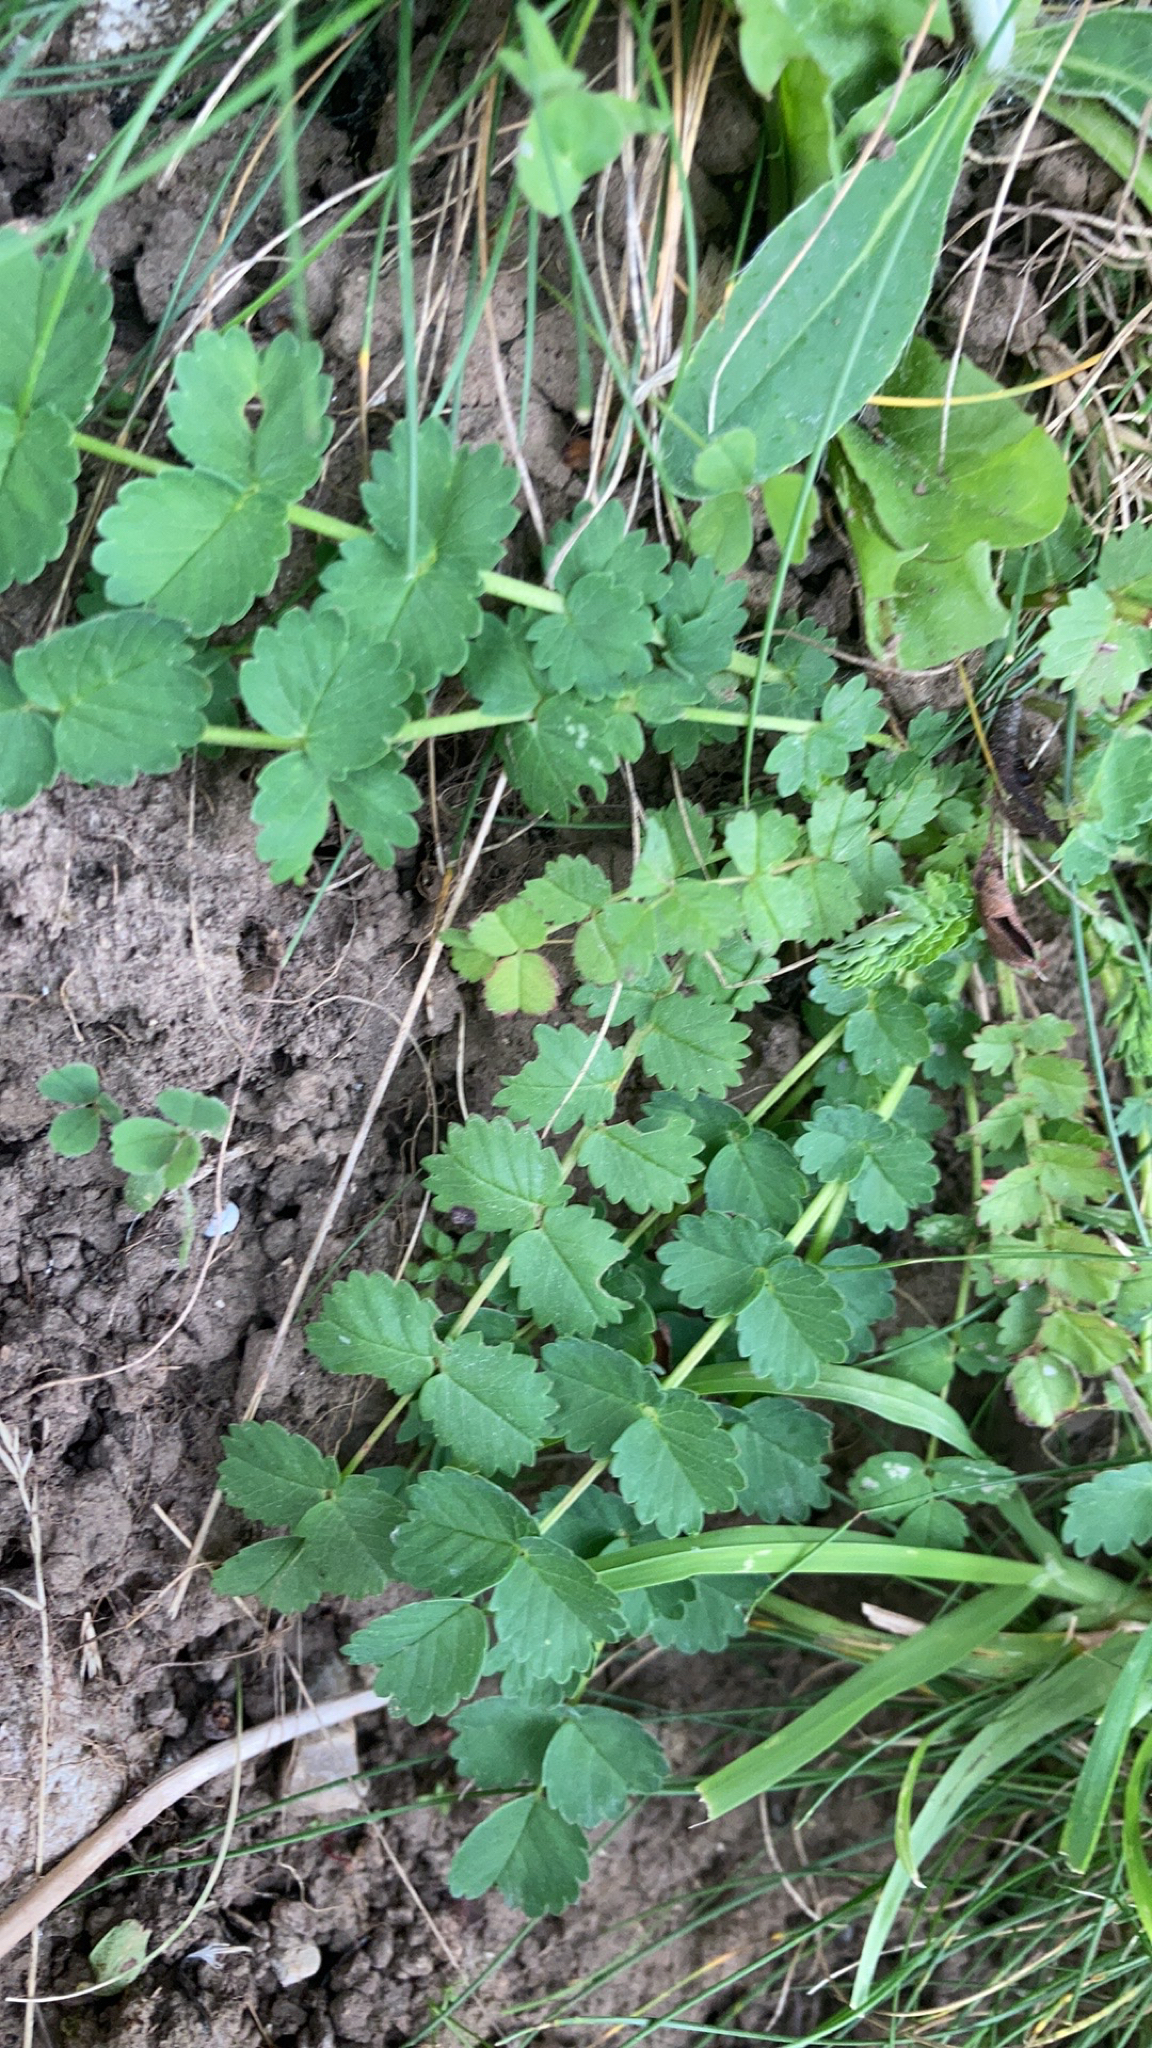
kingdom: Plantae
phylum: Tracheophyta
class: Magnoliopsida
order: Rosales
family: Rosaceae
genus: Poterium
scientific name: Poterium sanguisorba
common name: Salad burnet
